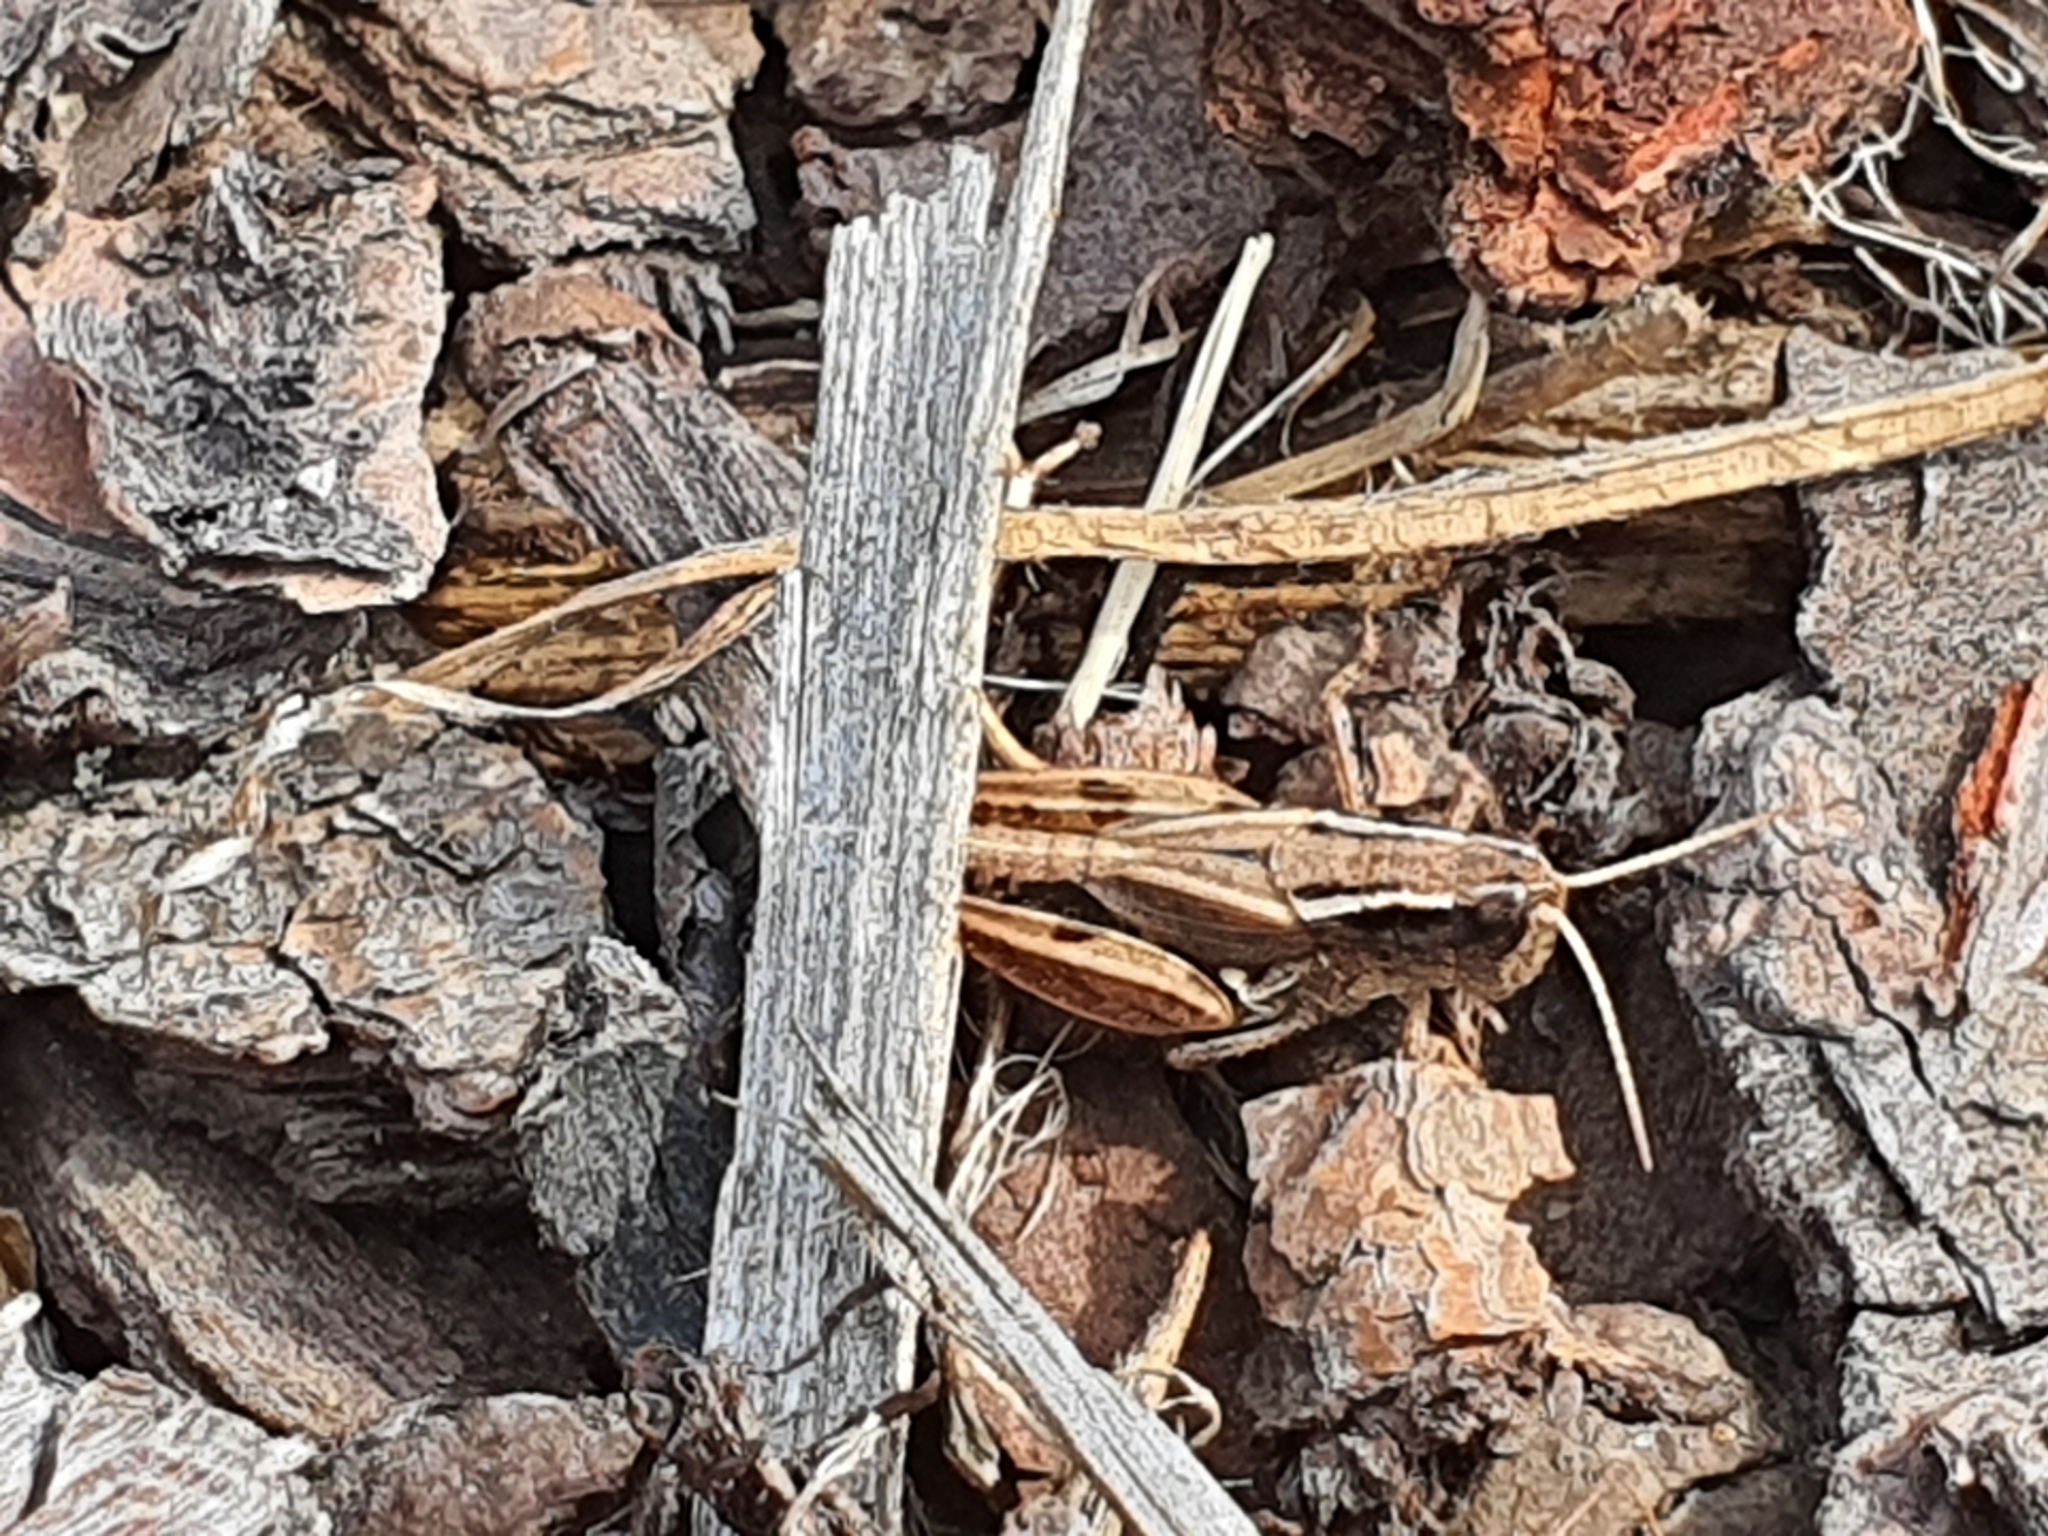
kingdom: Animalia
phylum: Arthropoda
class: Insecta
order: Orthoptera
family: Acrididae
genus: Phaulacridium
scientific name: Phaulacridium vittatum
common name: Wingless grasshopper
